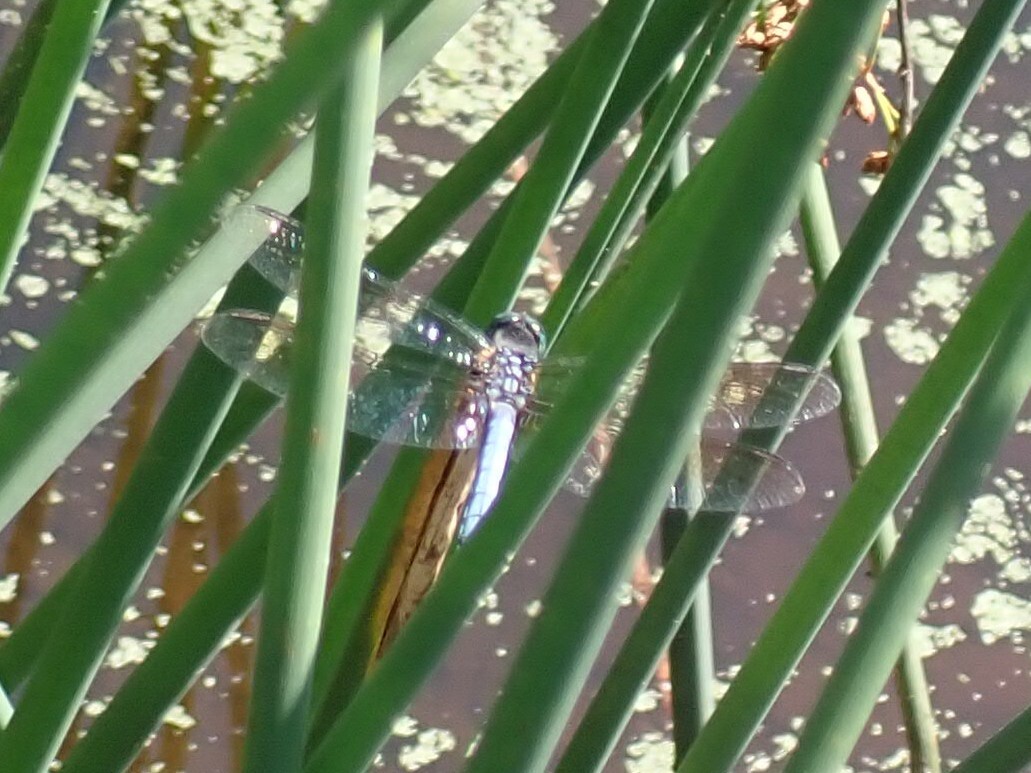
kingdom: Animalia
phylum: Arthropoda
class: Insecta
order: Odonata
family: Libellulidae
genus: Pachydiplax
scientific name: Pachydiplax longipennis
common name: Blue dasher
